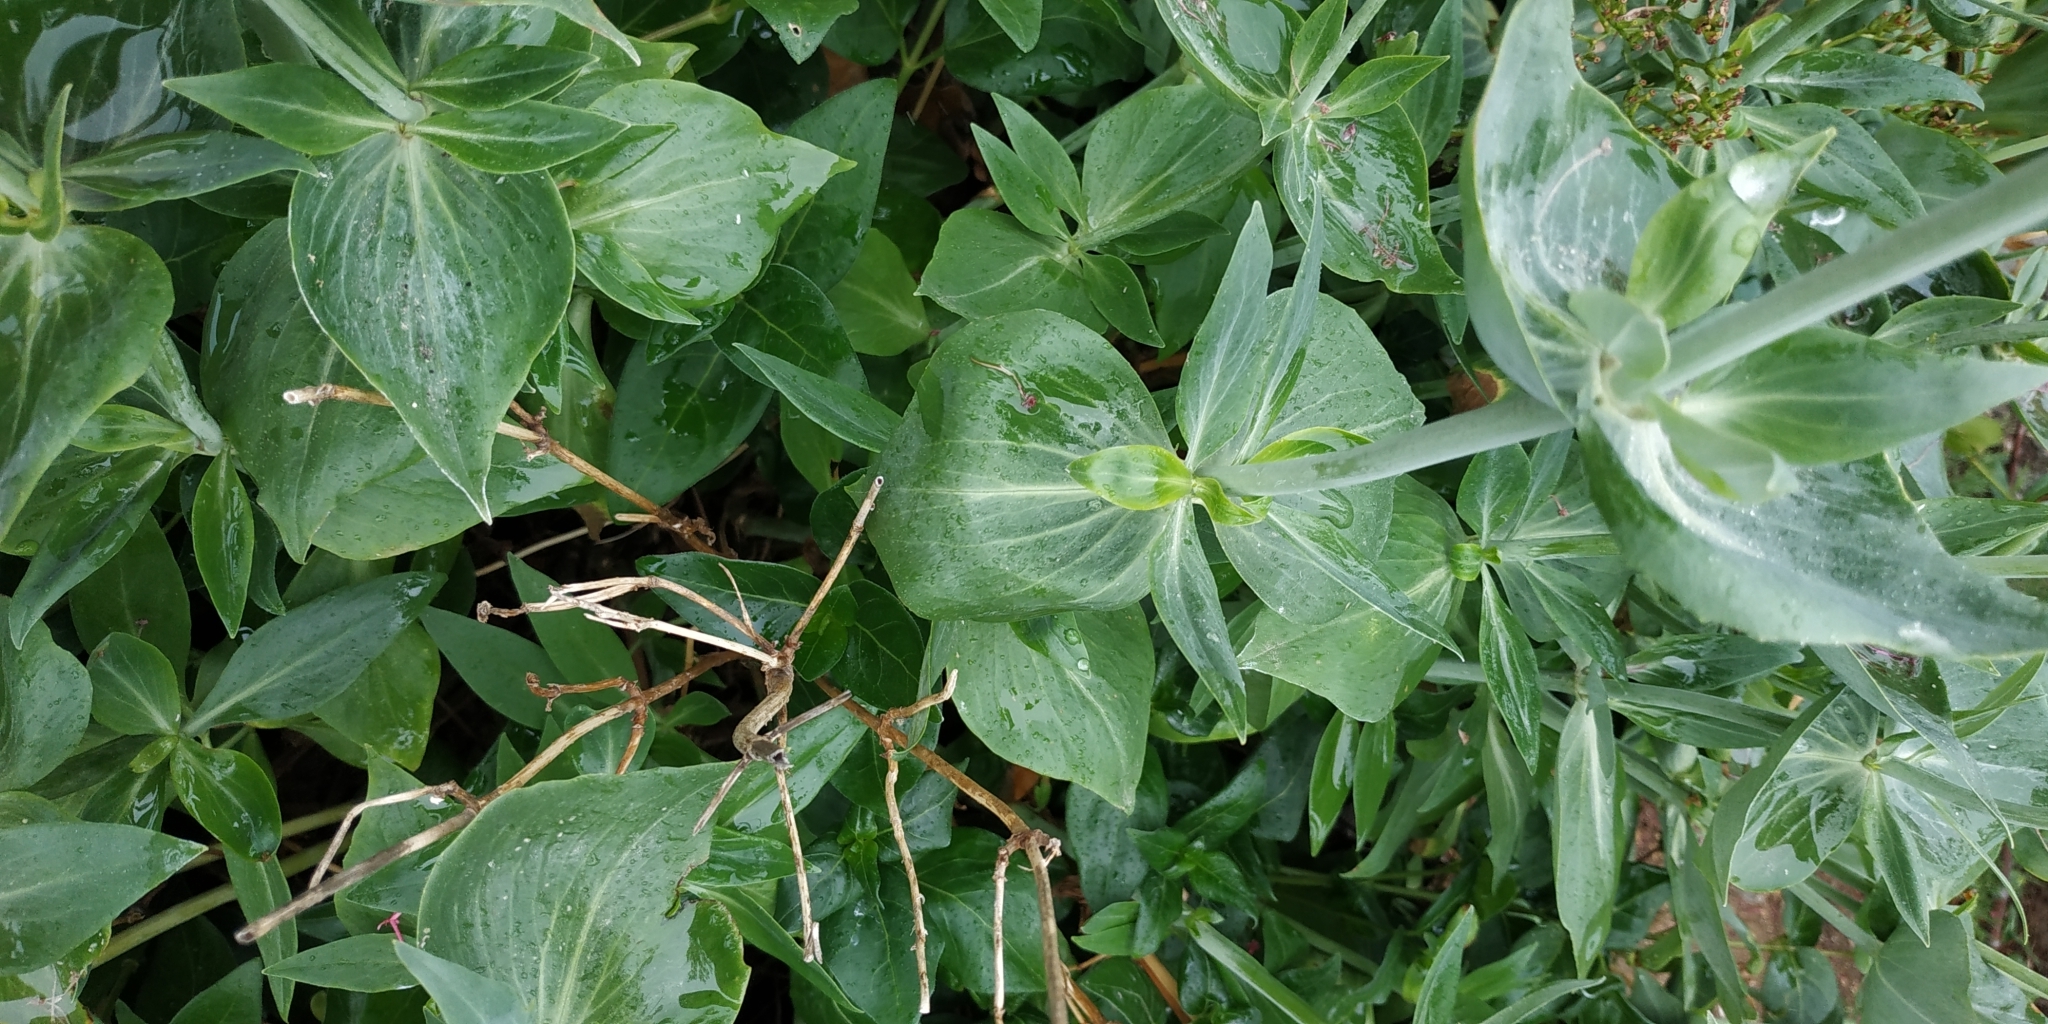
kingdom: Plantae
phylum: Tracheophyta
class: Magnoliopsida
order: Dipsacales
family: Caprifoliaceae
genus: Centranthus
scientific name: Centranthus ruber
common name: Red valerian
